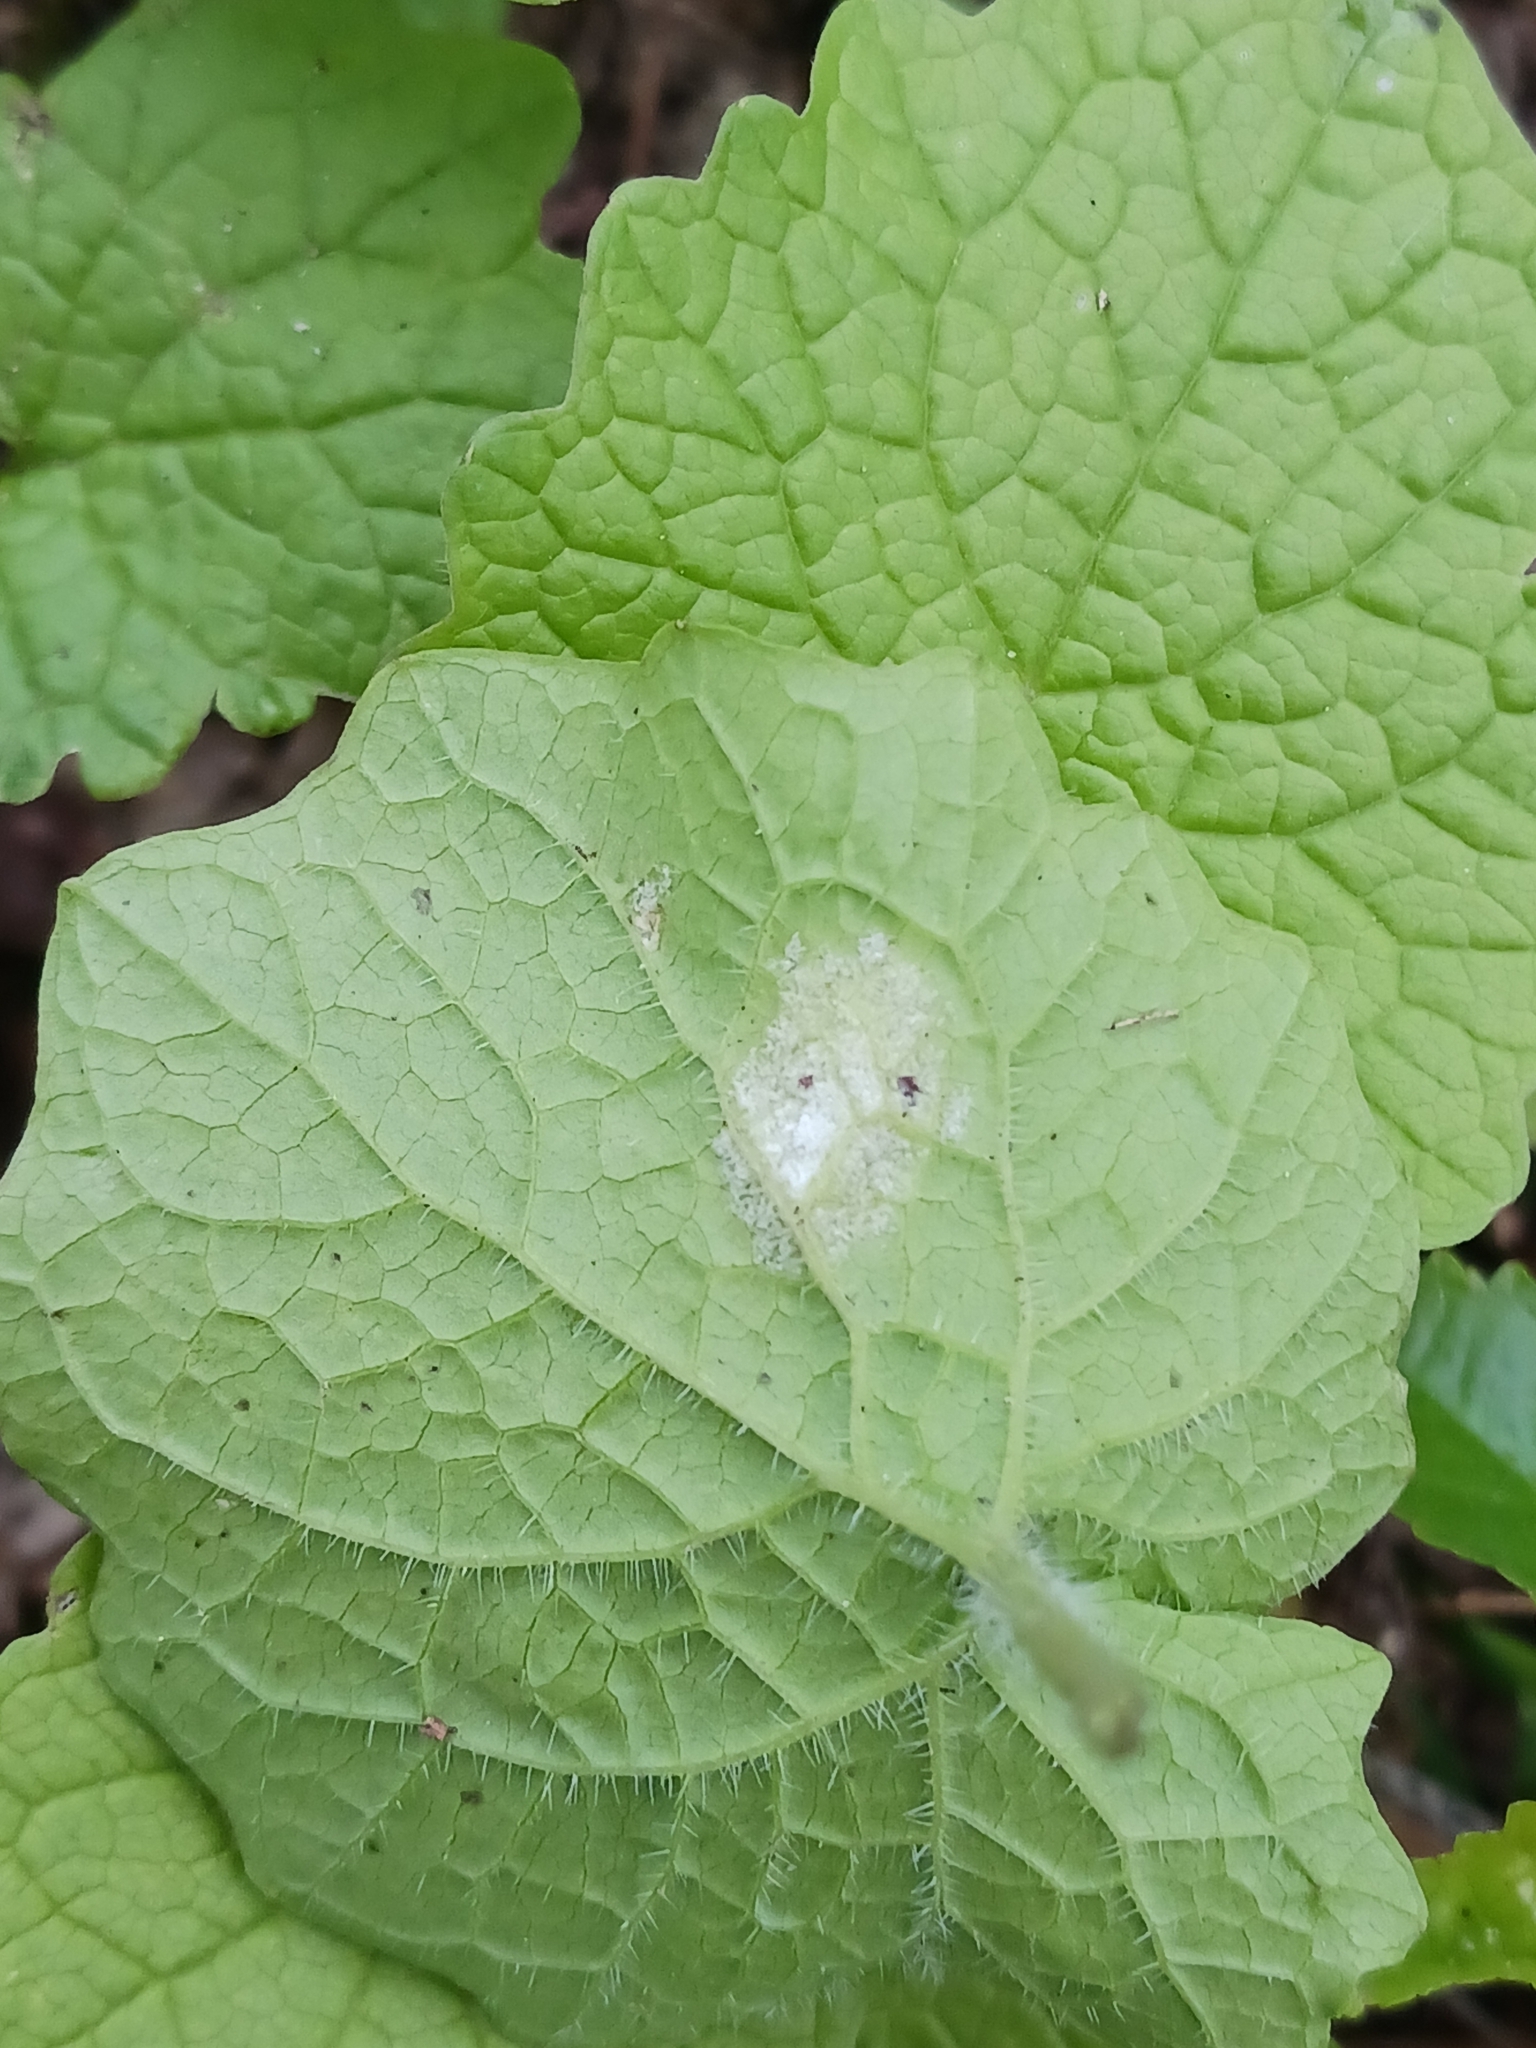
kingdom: Chromista
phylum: Oomycota
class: Peronosporea
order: Peronosporales
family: Peronosporaceae
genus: Hyaloperonospora
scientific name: Hyaloperonospora niessliana
